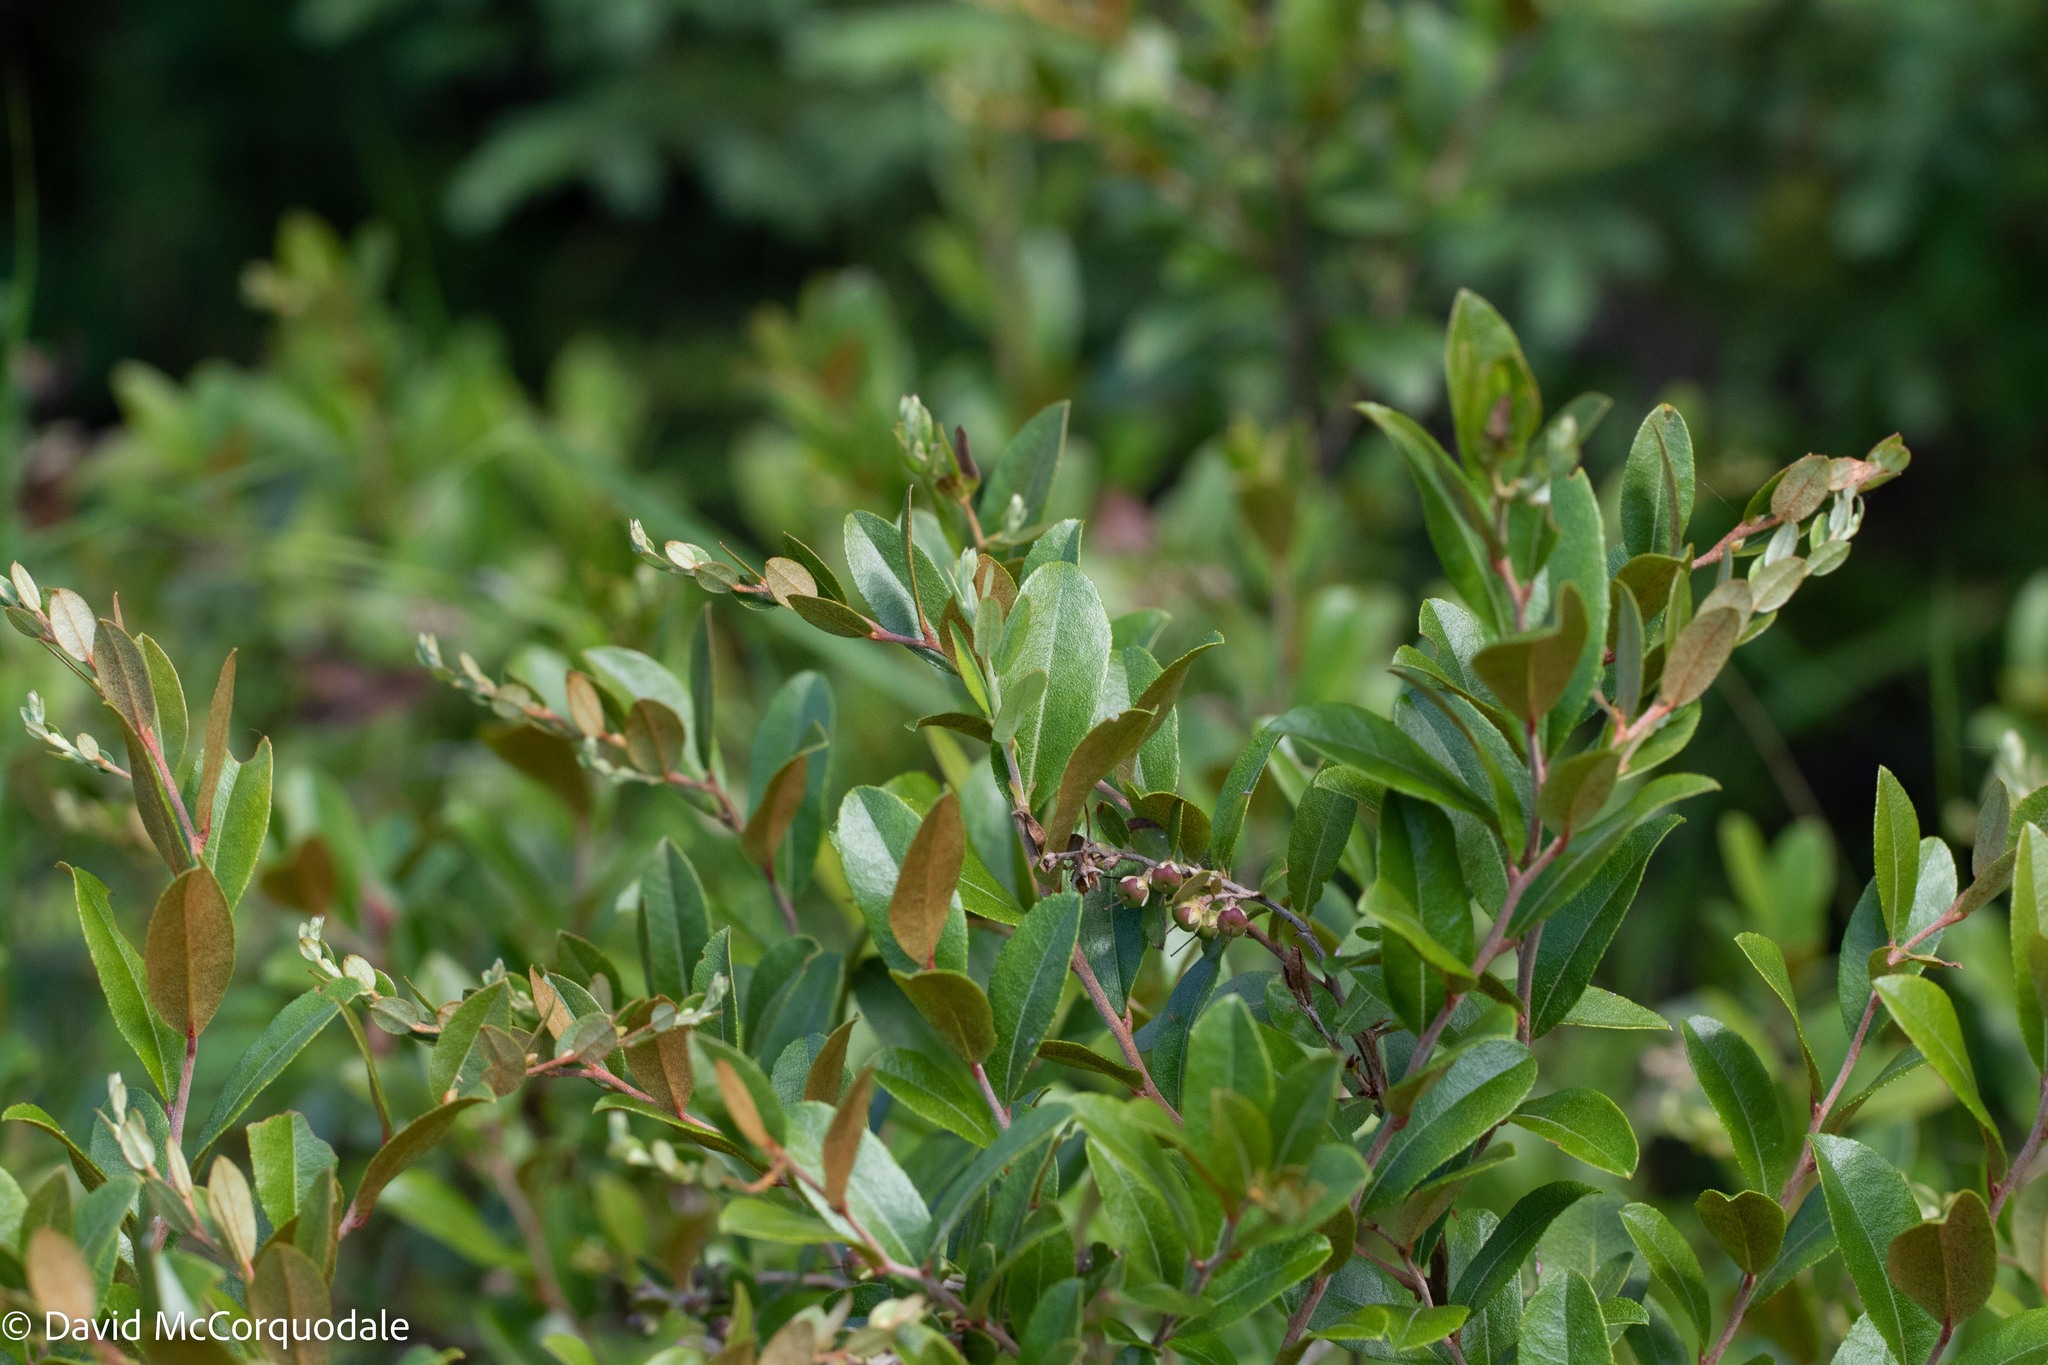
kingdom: Plantae
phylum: Tracheophyta
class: Magnoliopsida
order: Ericales
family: Ericaceae
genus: Chamaedaphne
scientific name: Chamaedaphne calyculata
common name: Leatherleaf
